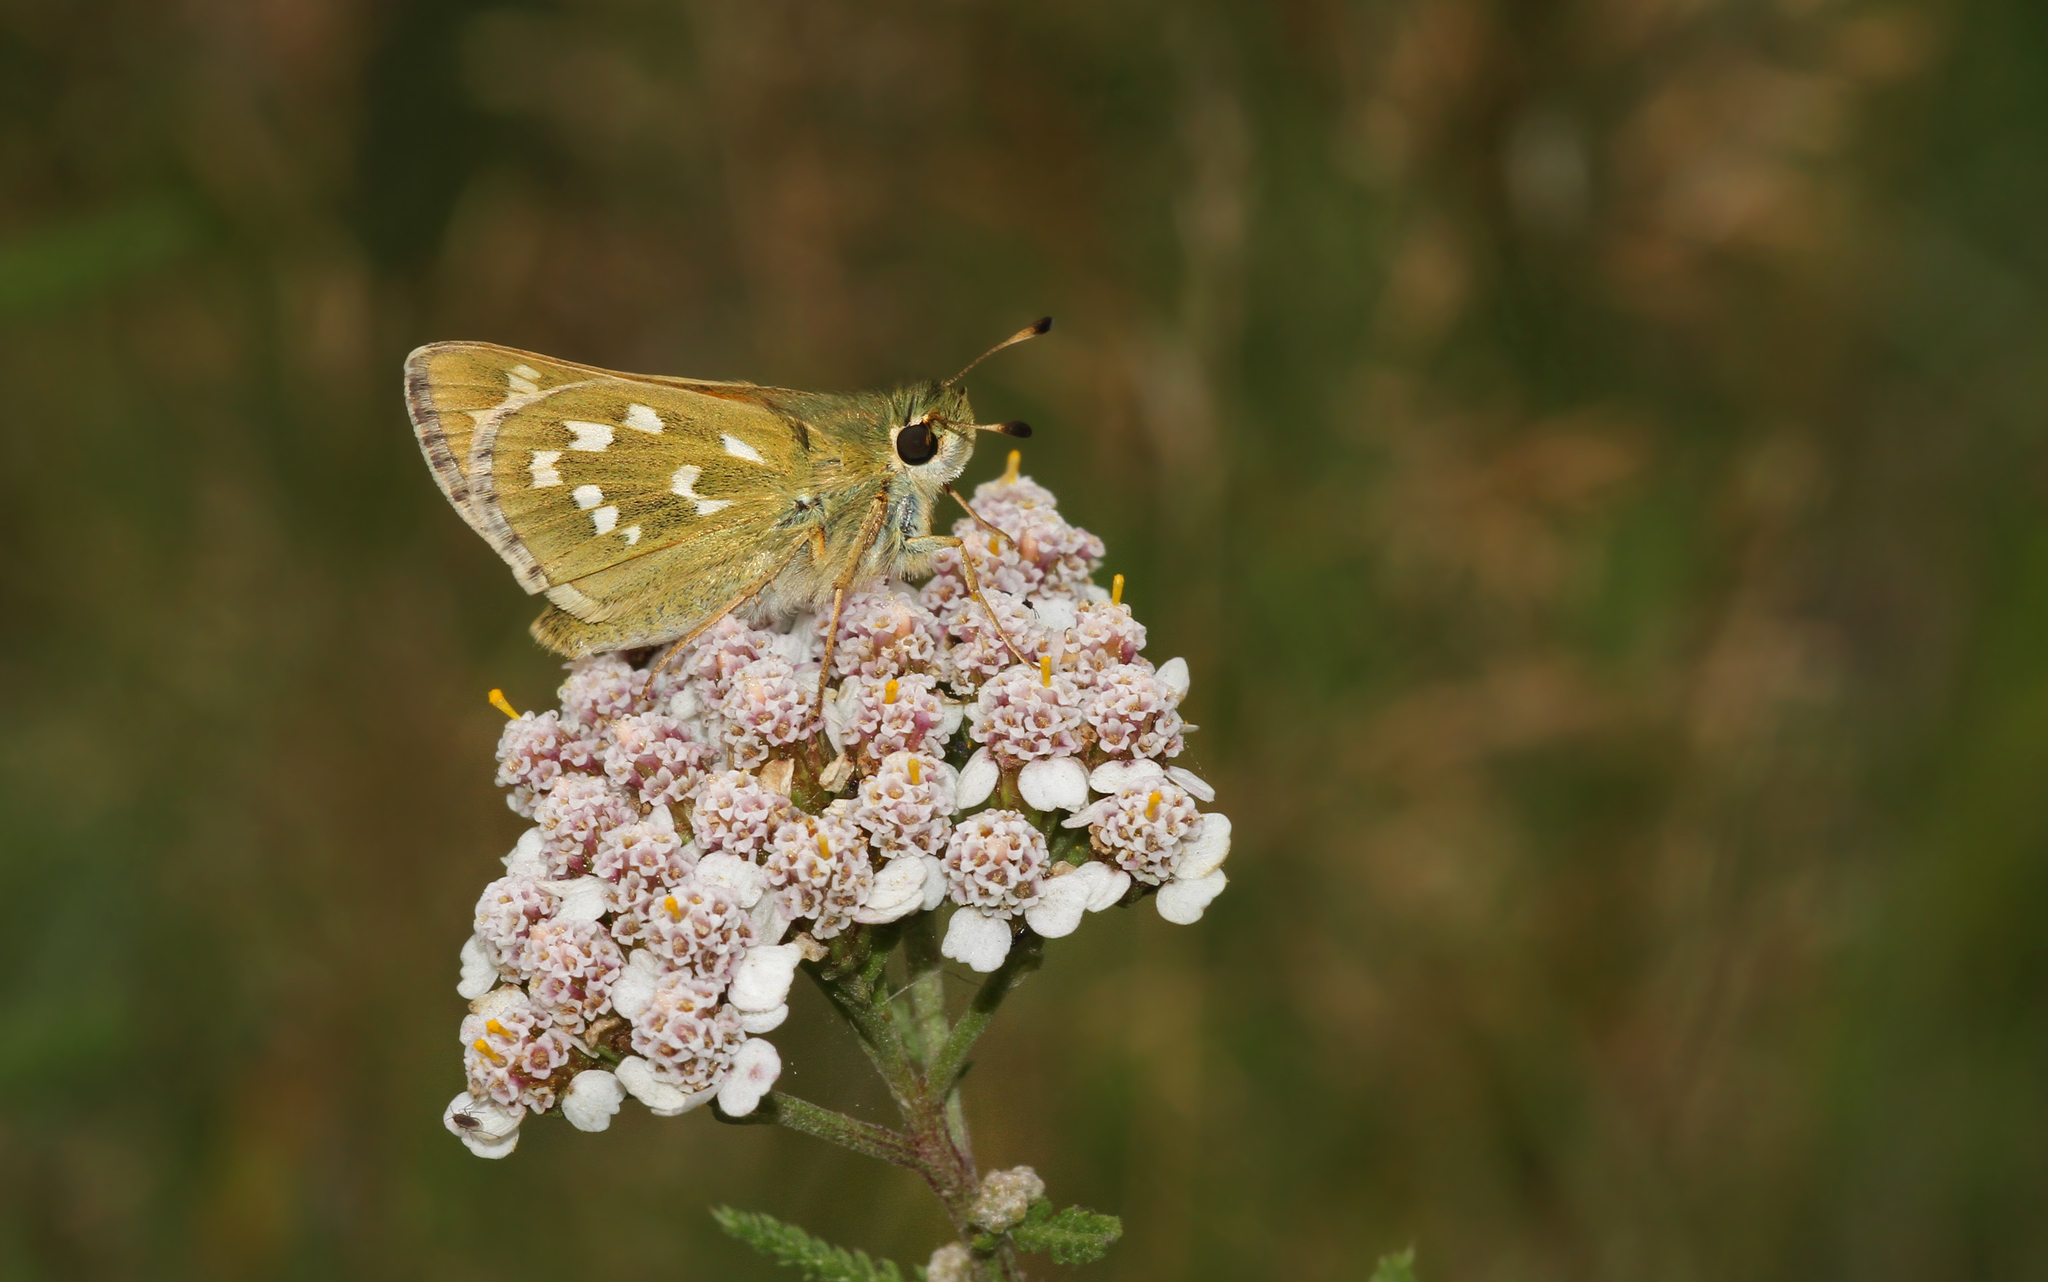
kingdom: Animalia
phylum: Arthropoda
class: Insecta
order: Lepidoptera
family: Hesperiidae
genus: Hesperia
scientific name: Hesperia comma
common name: Common branded skipper
